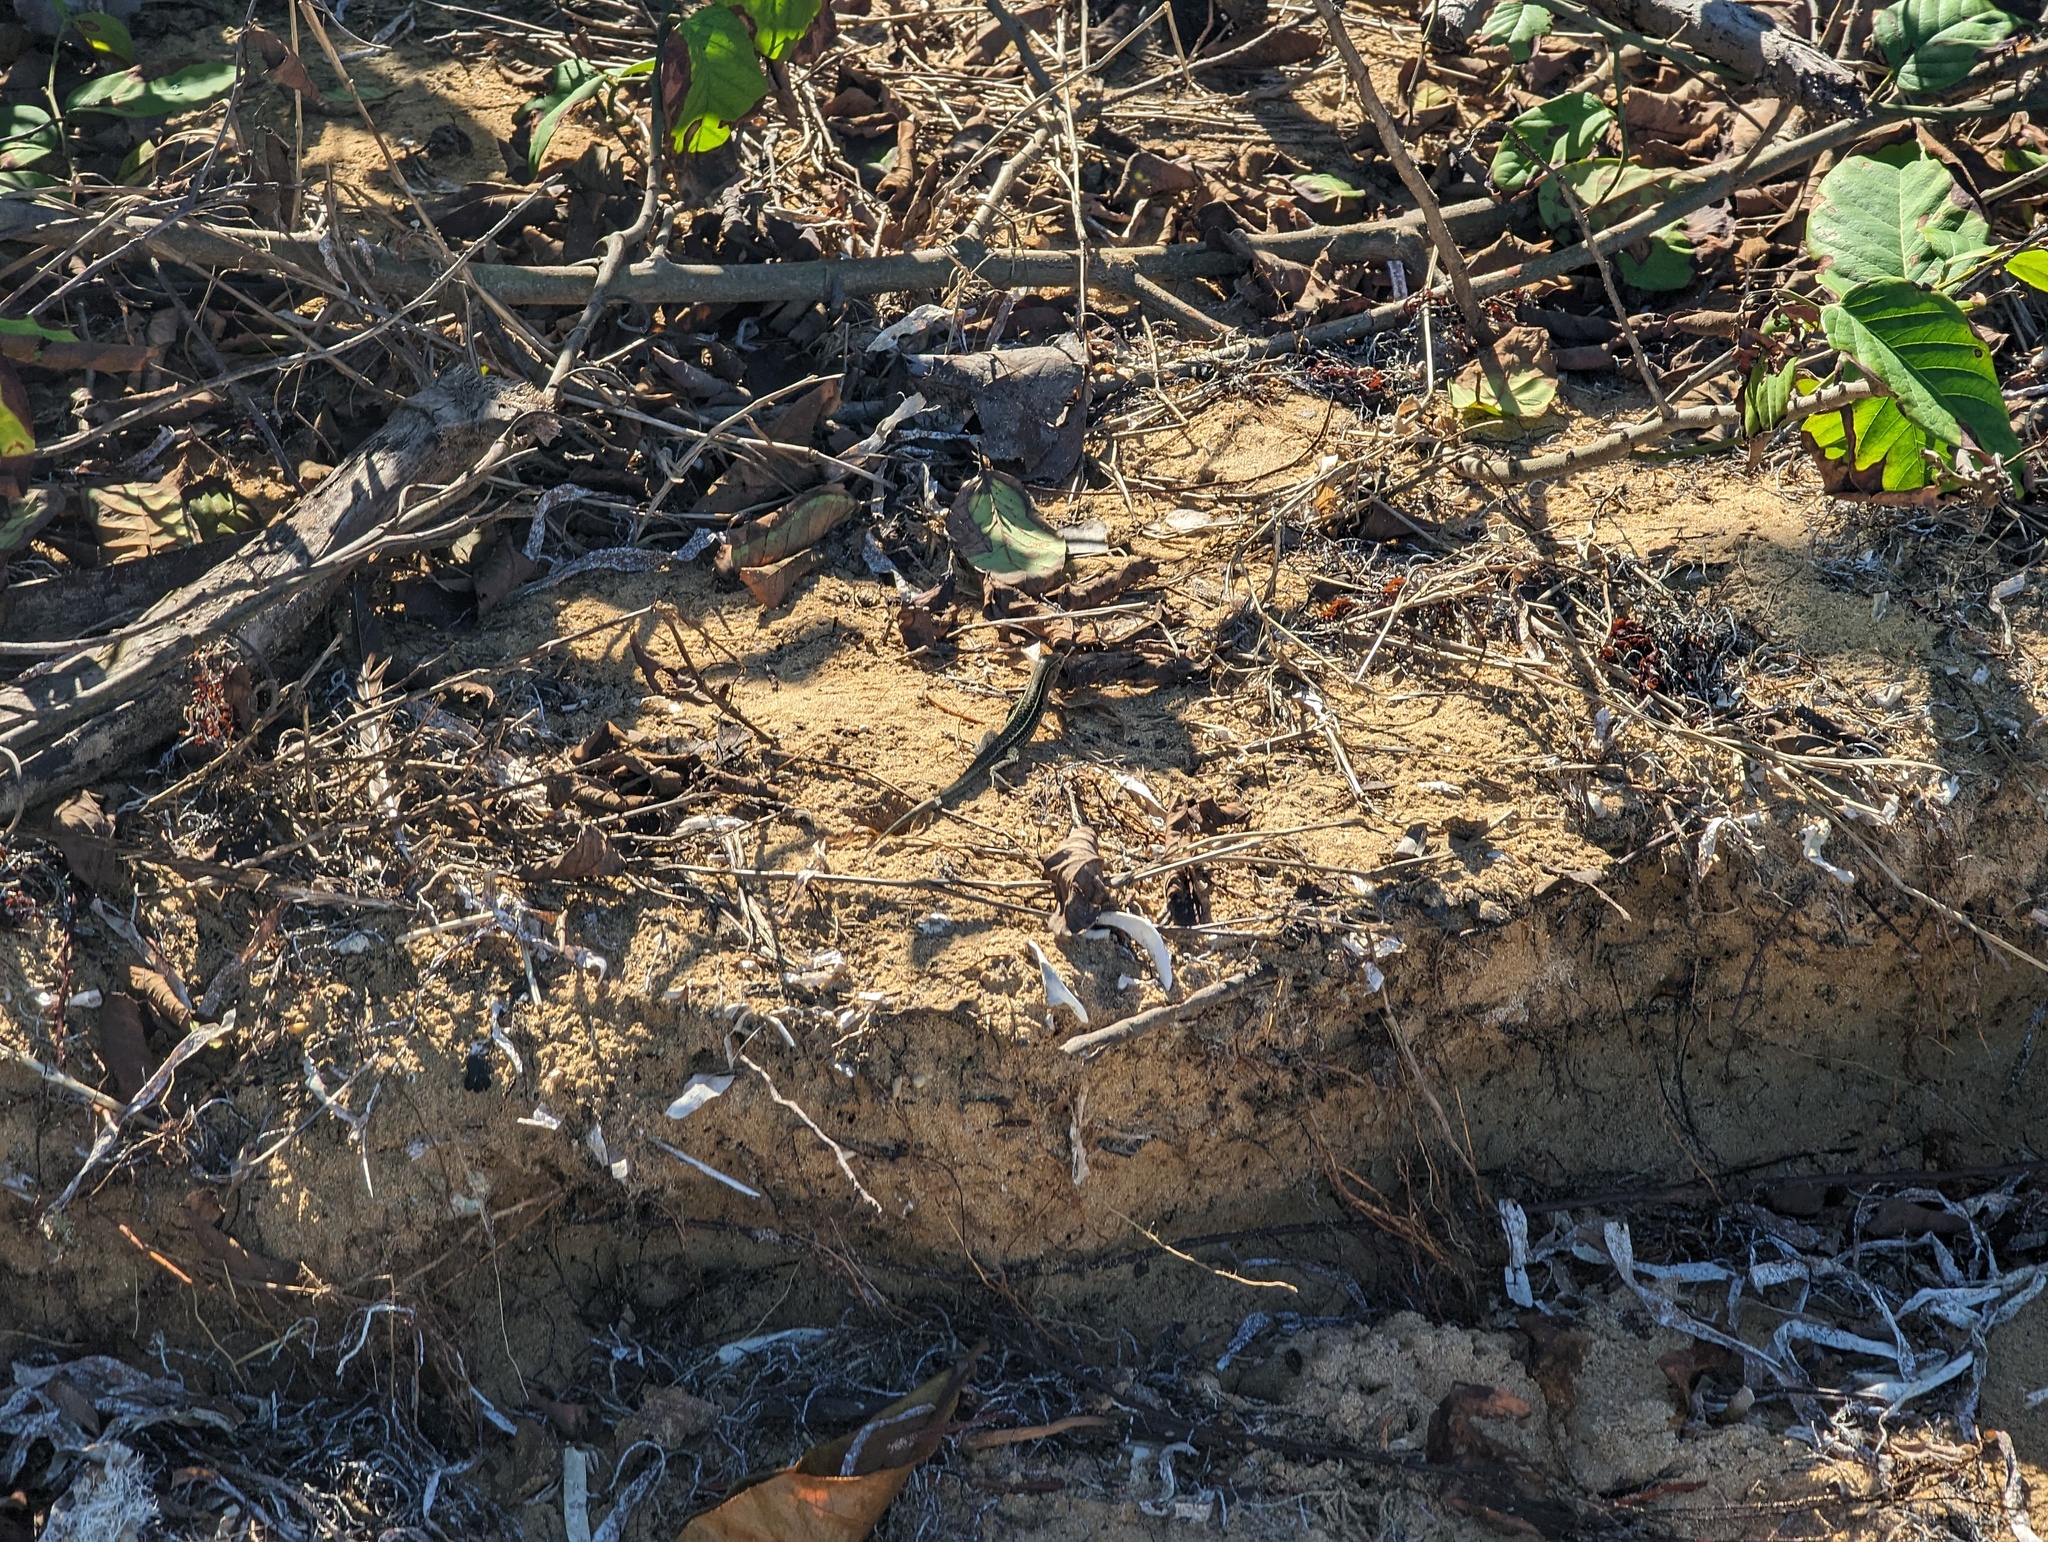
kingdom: Animalia
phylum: Chordata
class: Squamata
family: Teiidae
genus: Pholidoscelis
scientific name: Pholidoscelis exsul
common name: Common puerto rican ameiva
